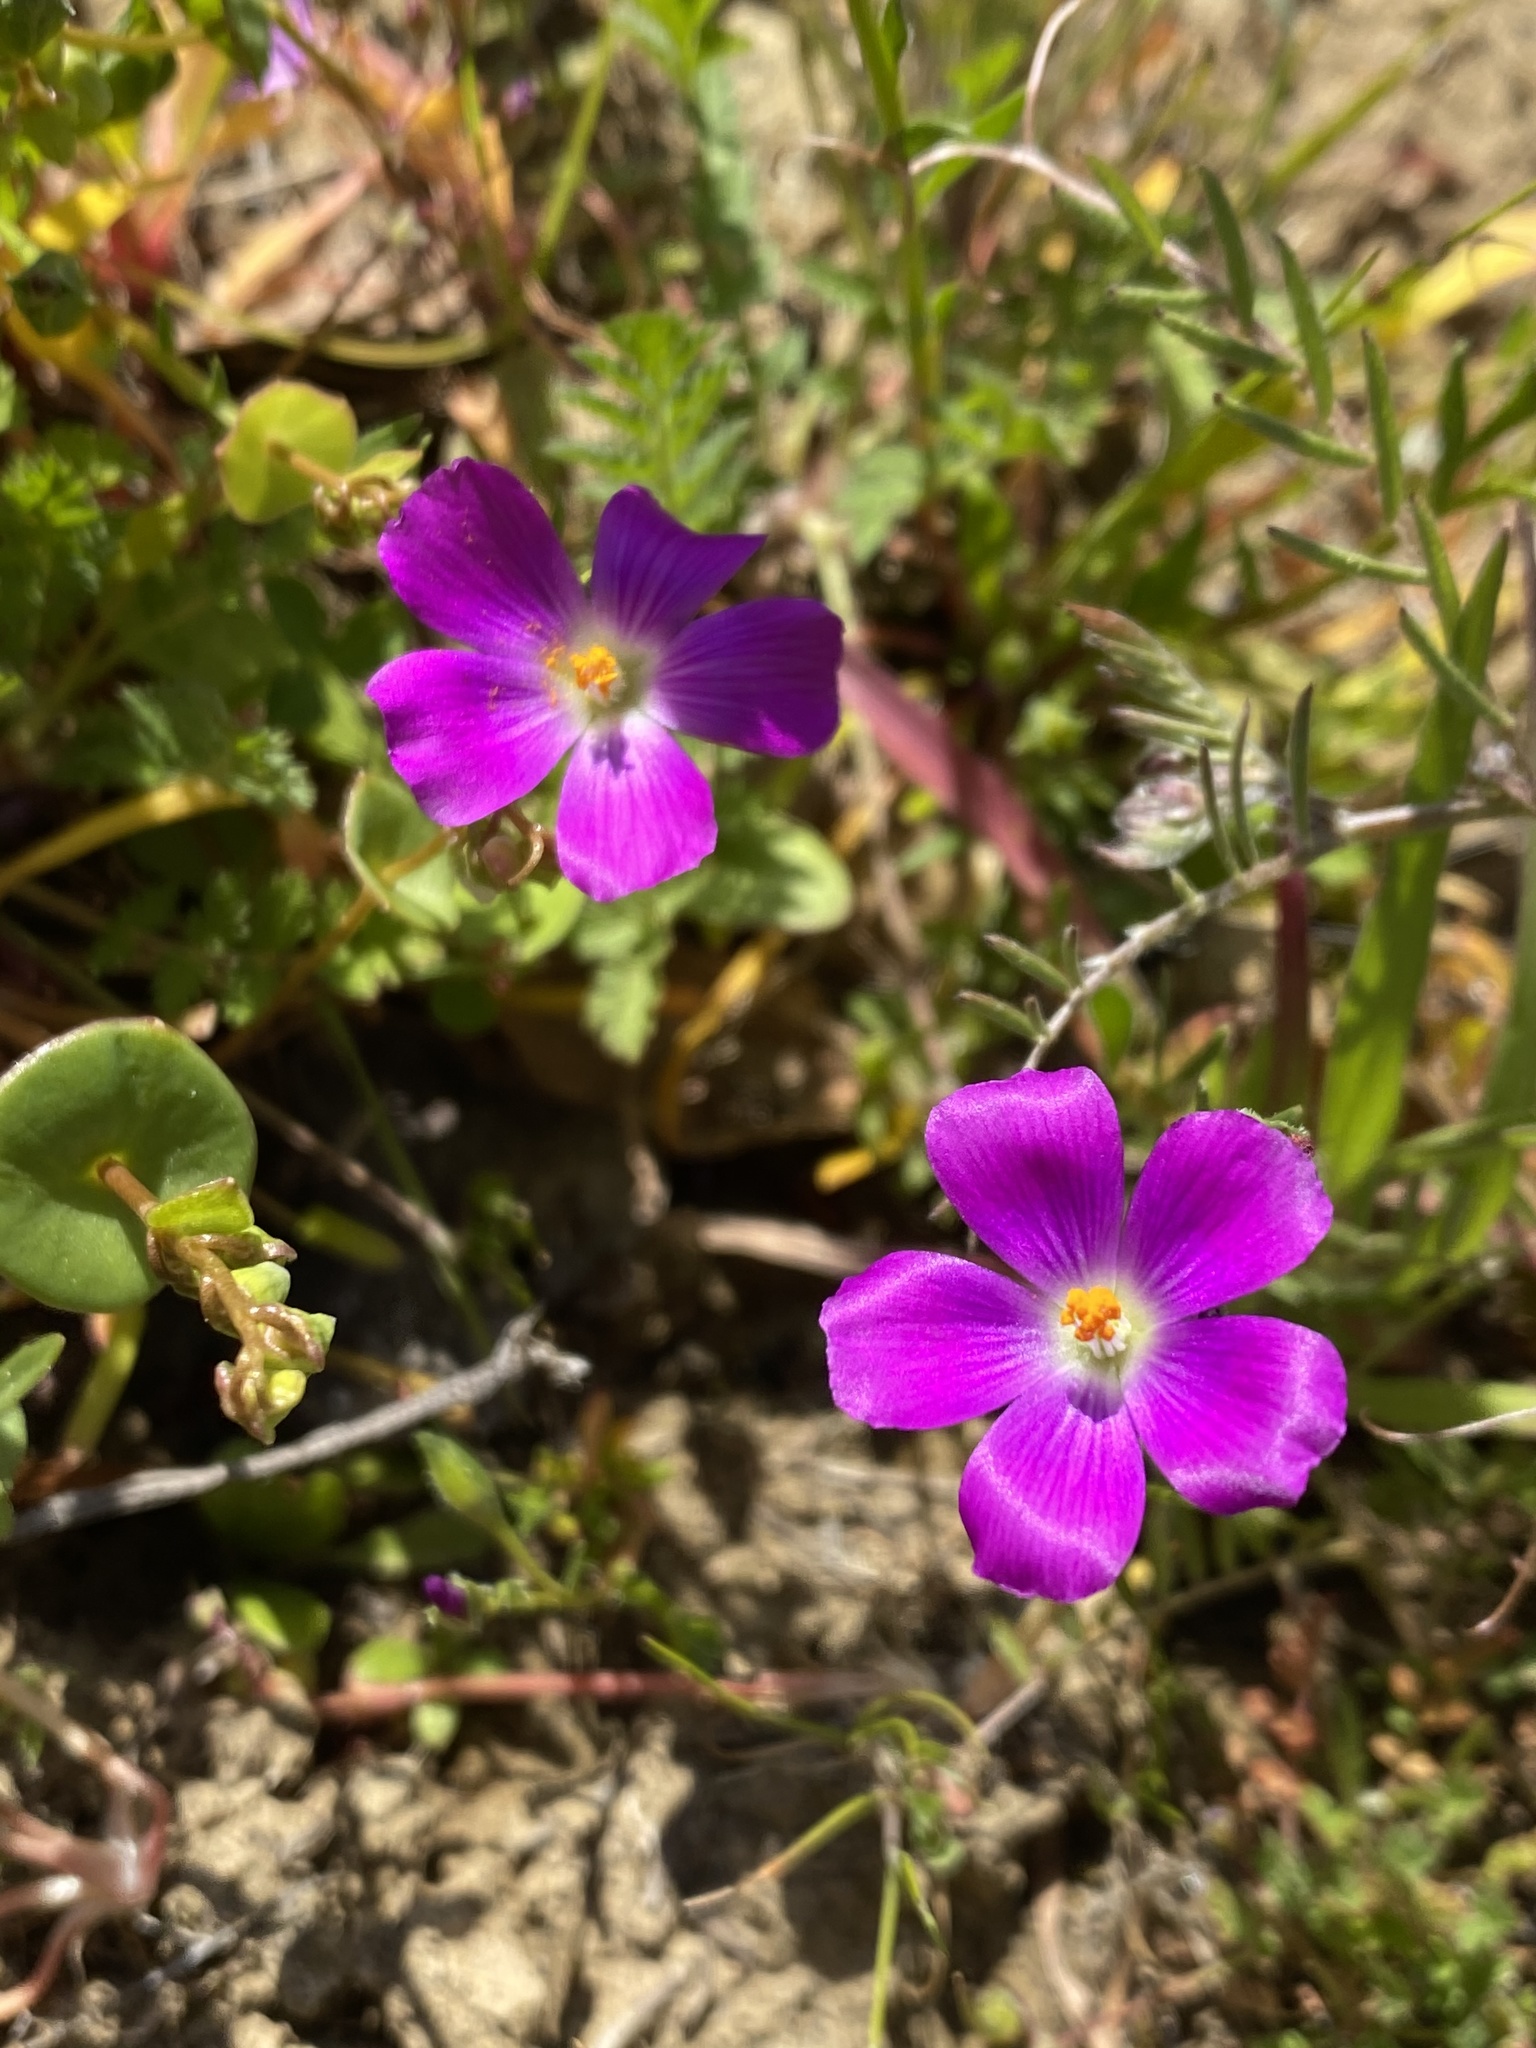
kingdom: Plantae
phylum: Tracheophyta
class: Magnoliopsida
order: Caryophyllales
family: Montiaceae
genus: Calandrinia
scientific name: Calandrinia menziesii
